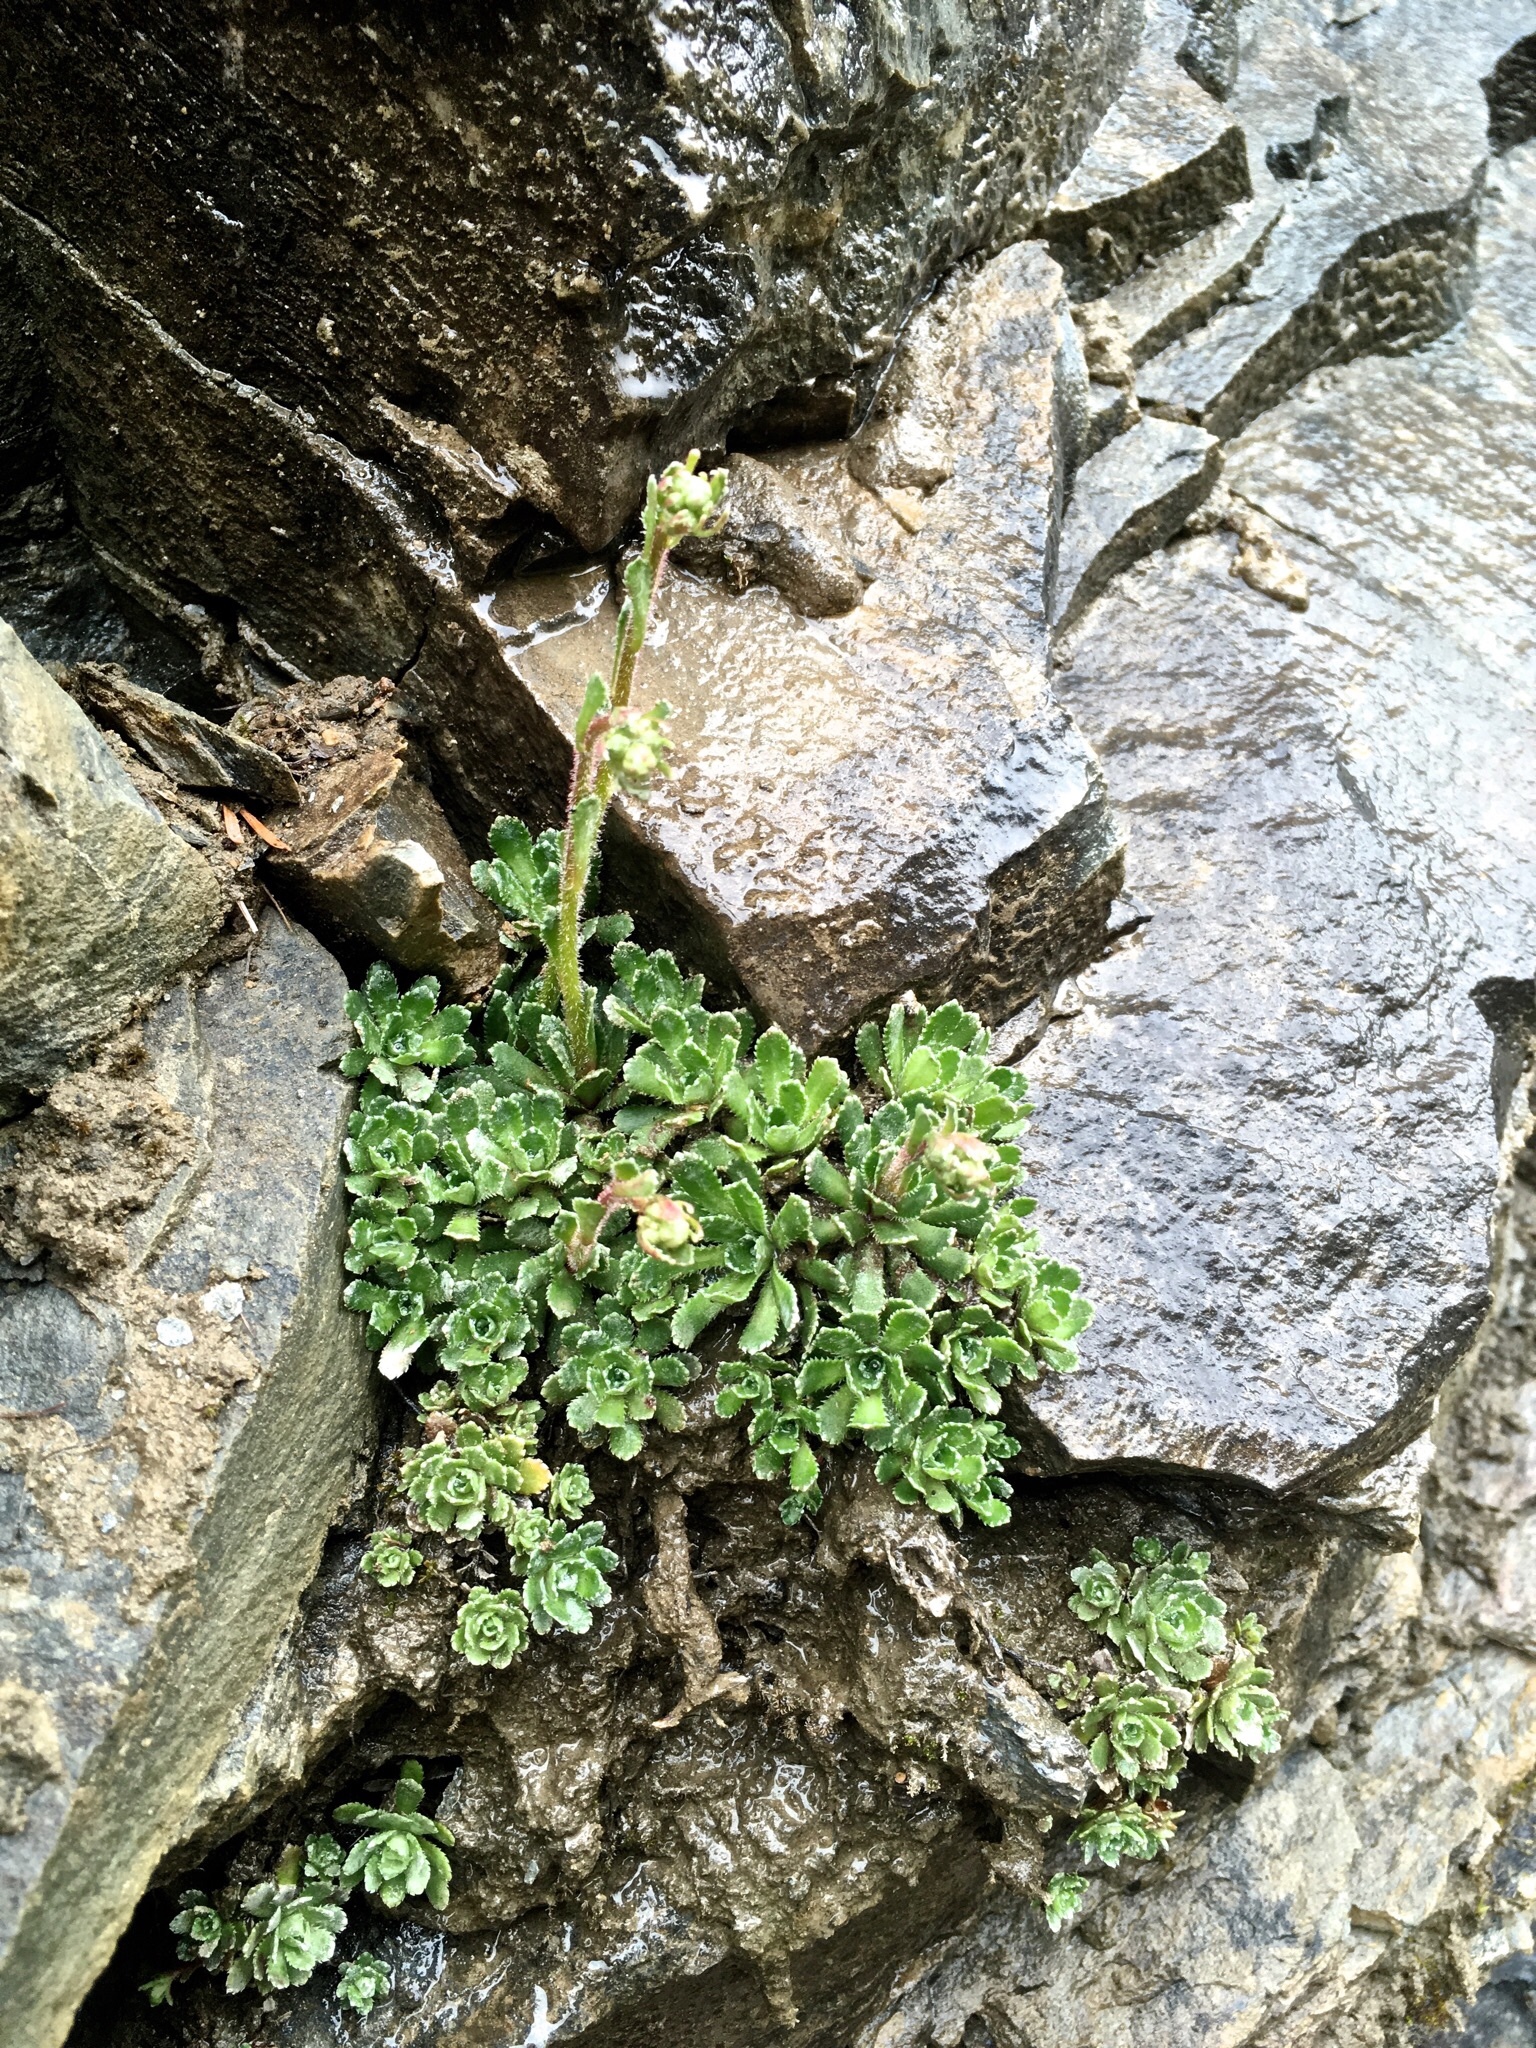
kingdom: Plantae
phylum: Tracheophyta
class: Magnoliopsida
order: Saxifragales
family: Saxifragaceae
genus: Saxifraga
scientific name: Saxifraga paniculata
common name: Livelong saxifrage
